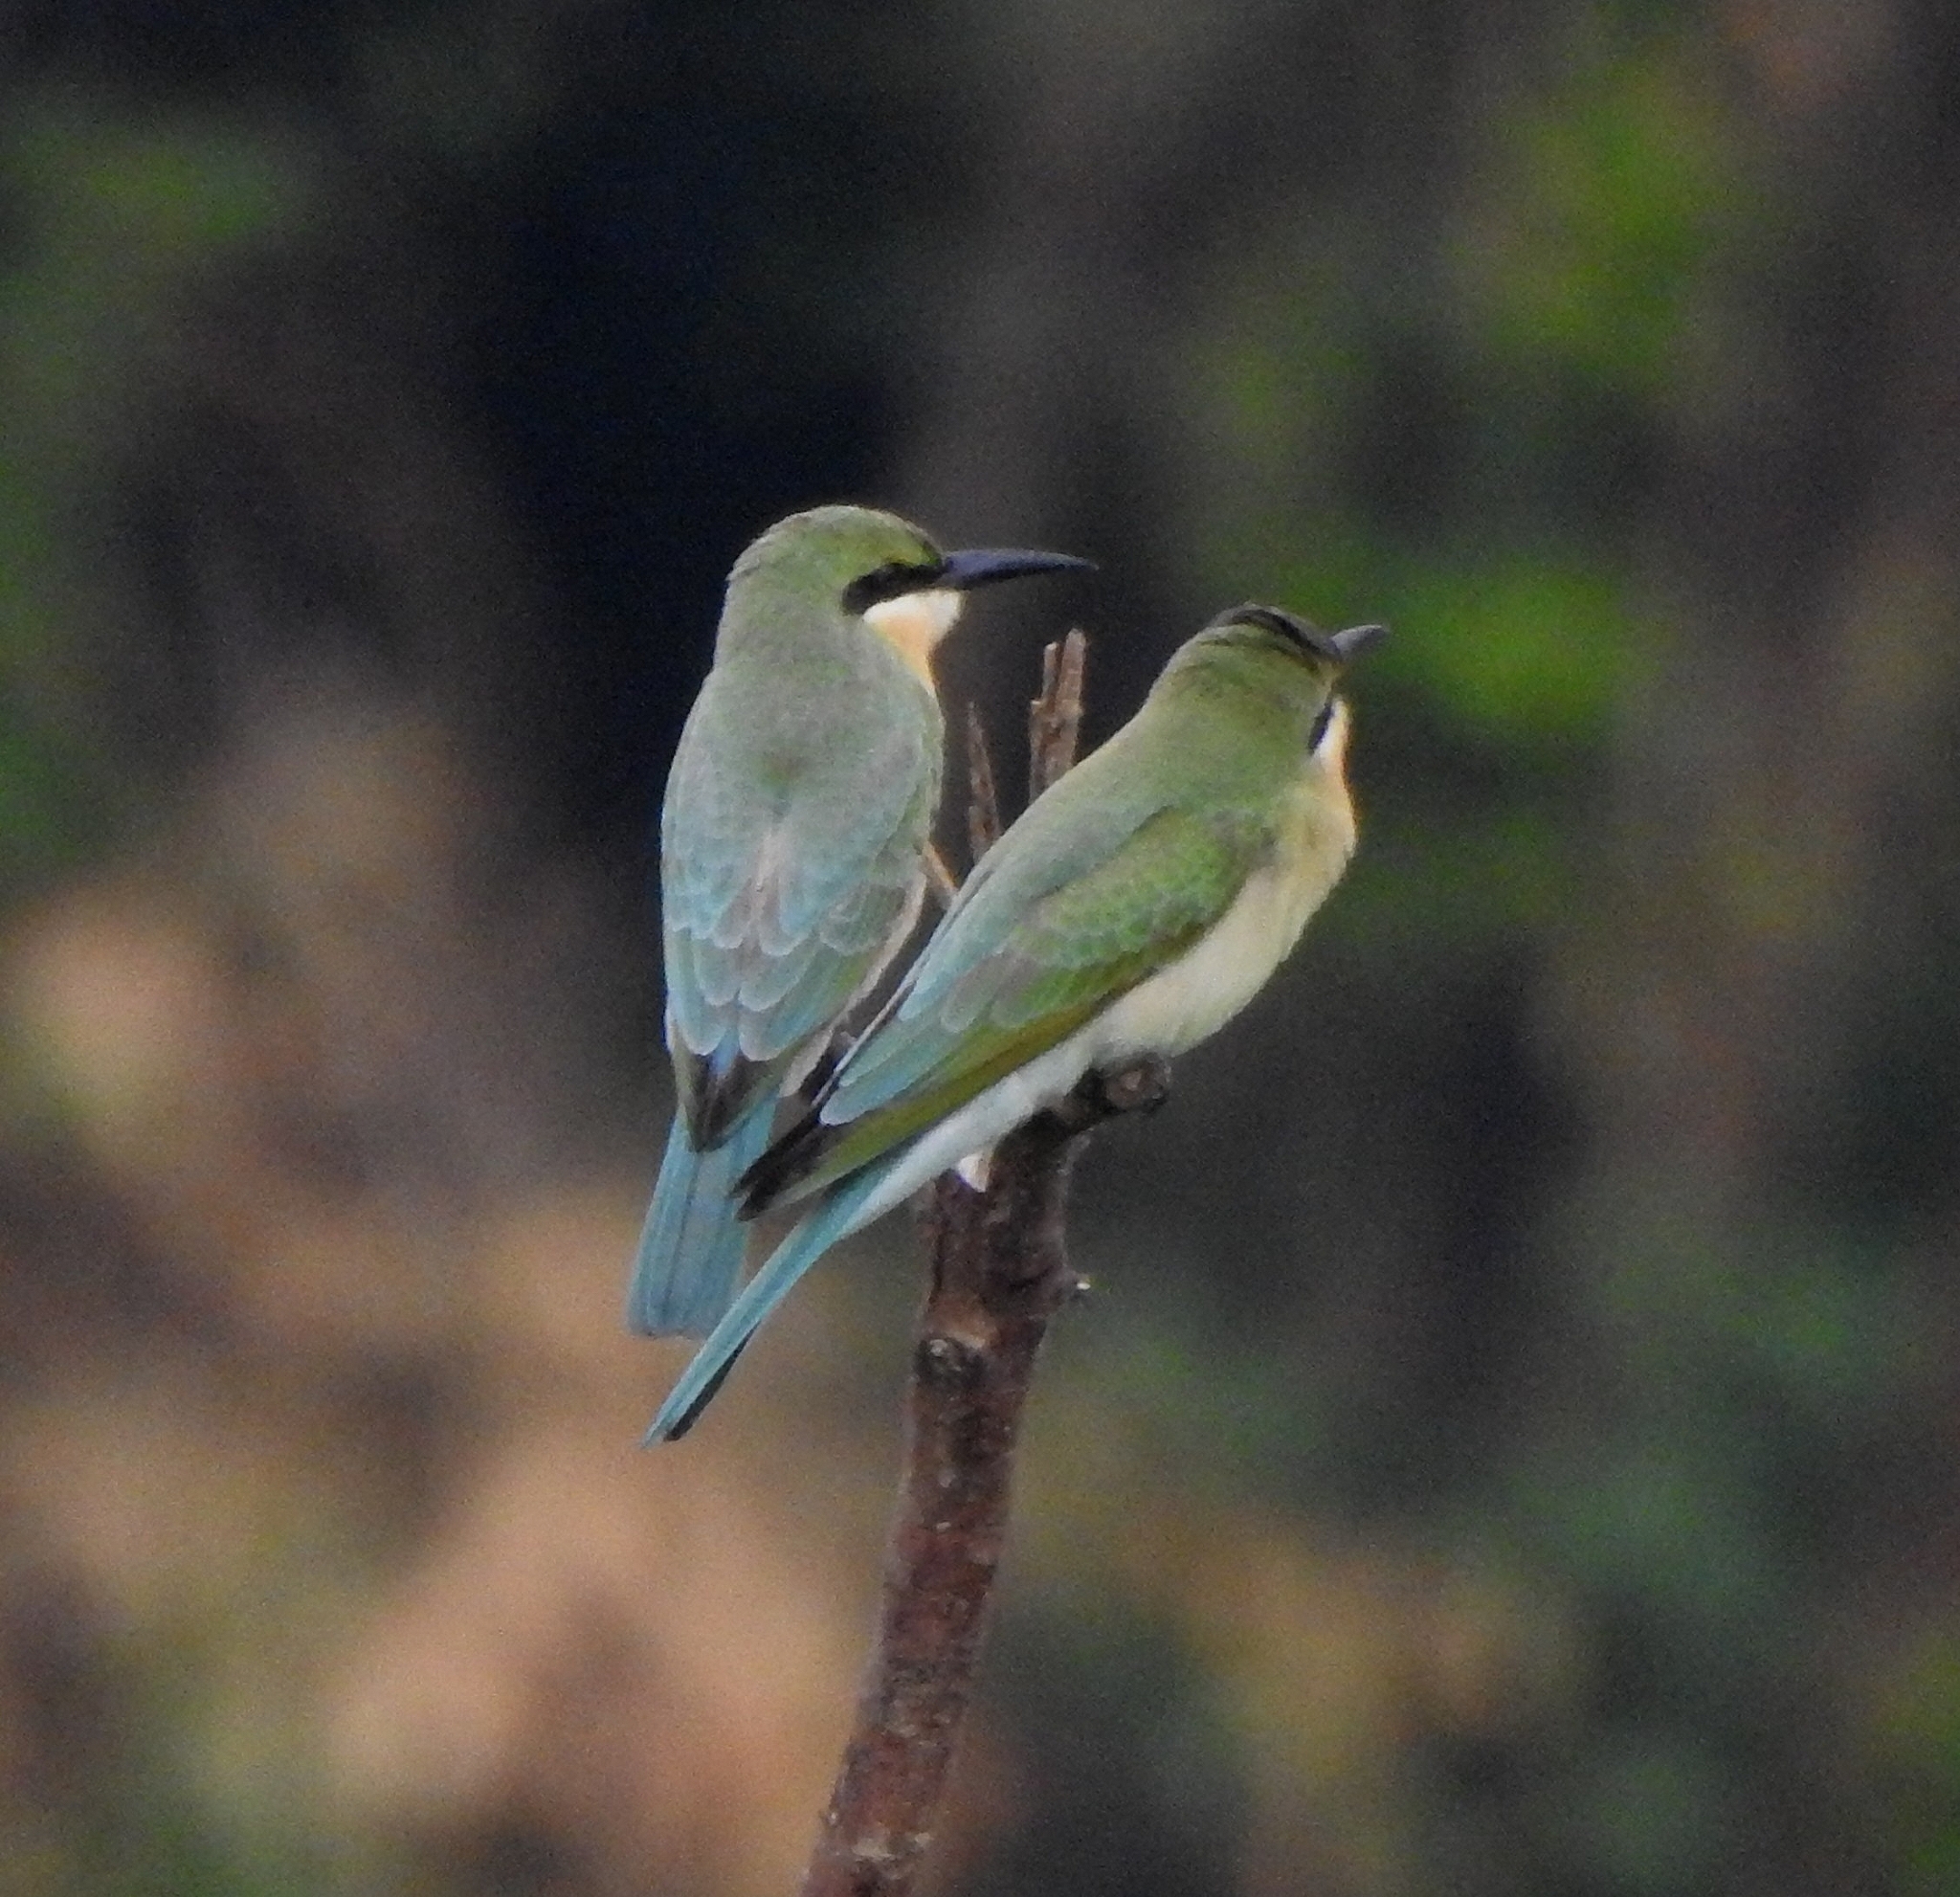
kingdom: Animalia
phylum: Chordata
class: Aves
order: Coraciiformes
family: Meropidae
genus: Merops
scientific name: Merops philippinus
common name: Blue-tailed bee-eater
